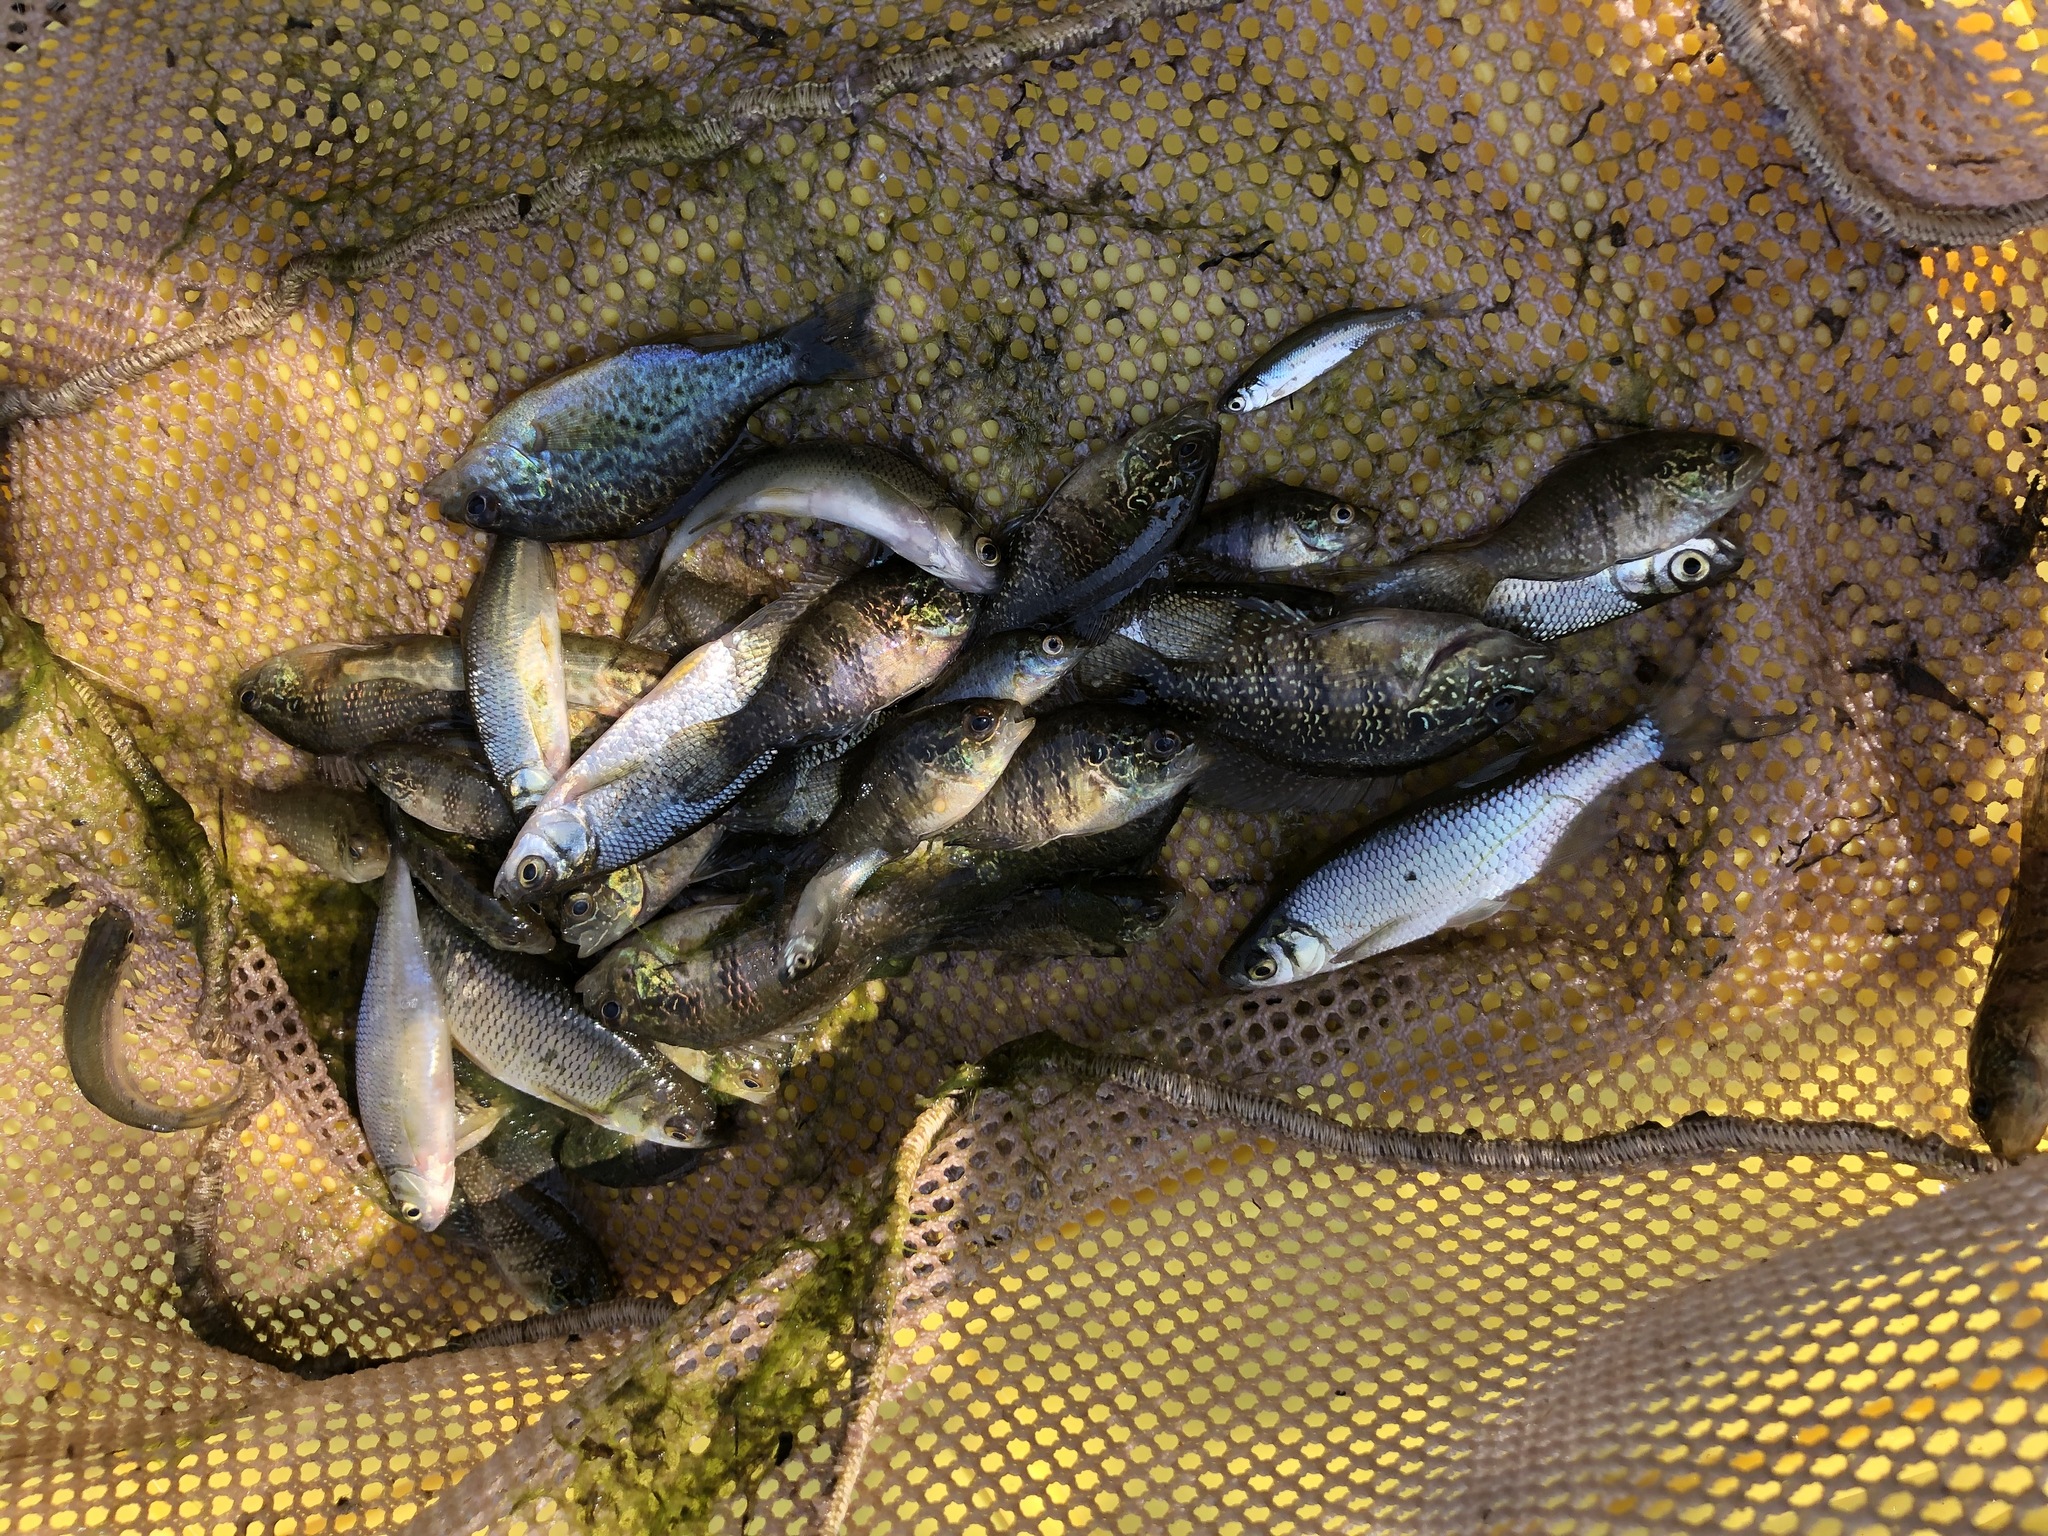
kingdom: Animalia
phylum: Chordata
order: Perciformes
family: Centrarchidae
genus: Enneacanthus
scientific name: Enneacanthus obesus
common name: Banded sunfish
